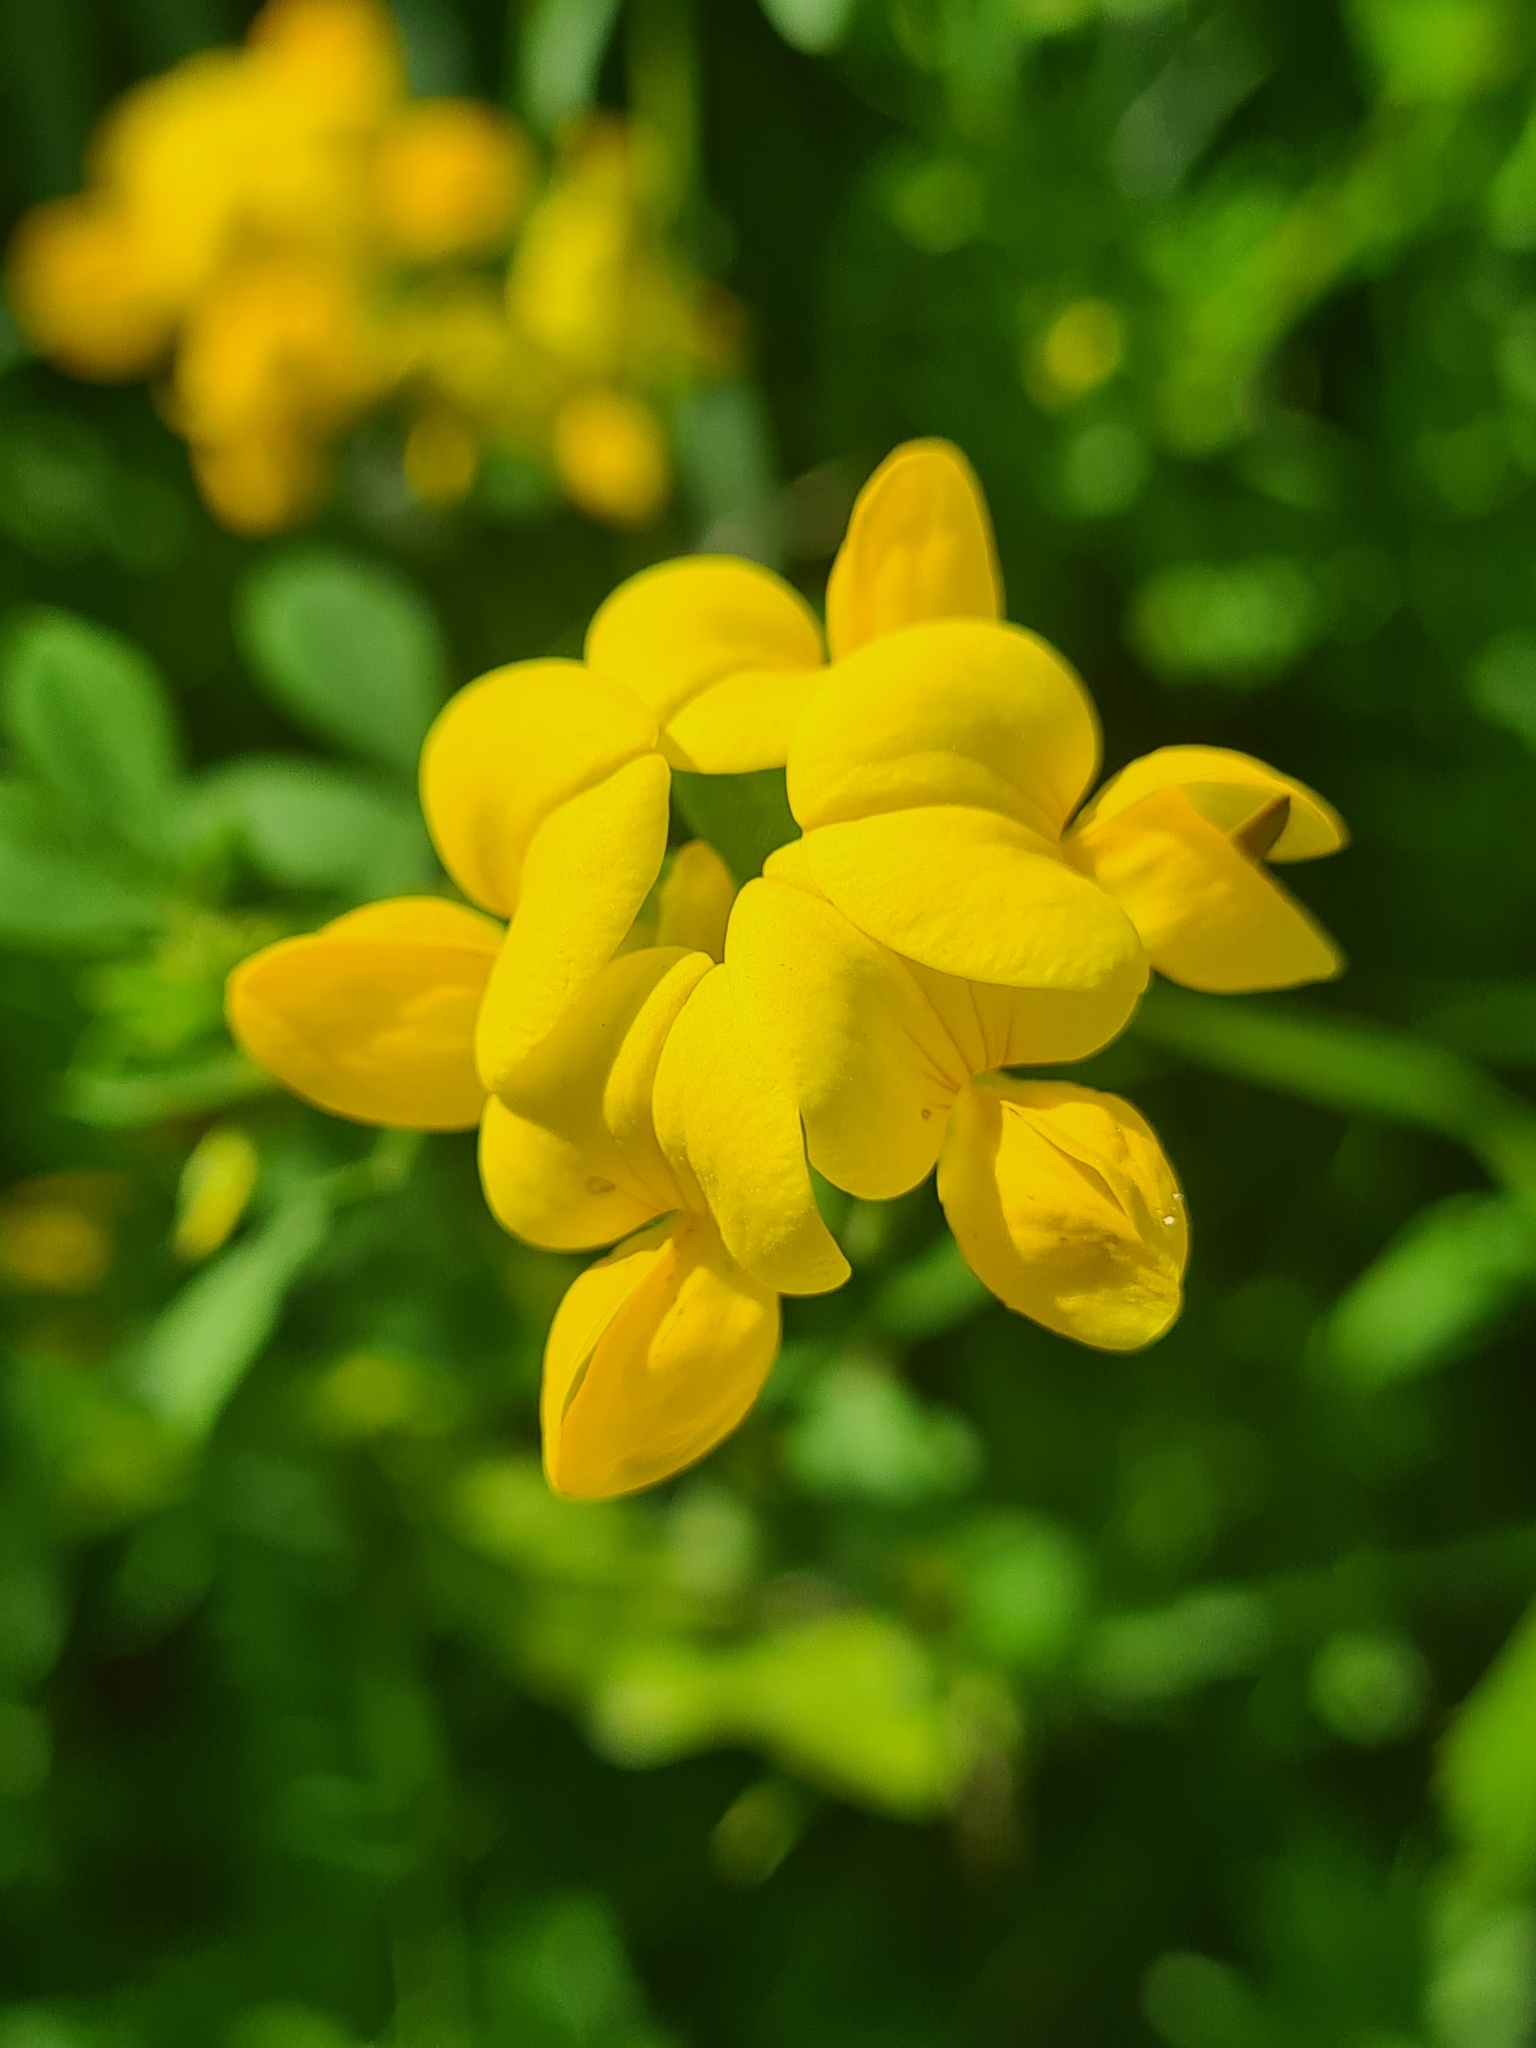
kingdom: Plantae
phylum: Tracheophyta
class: Magnoliopsida
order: Fabales
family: Fabaceae
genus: Lotus
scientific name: Lotus corniculatus
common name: Common bird's-foot-trefoil
